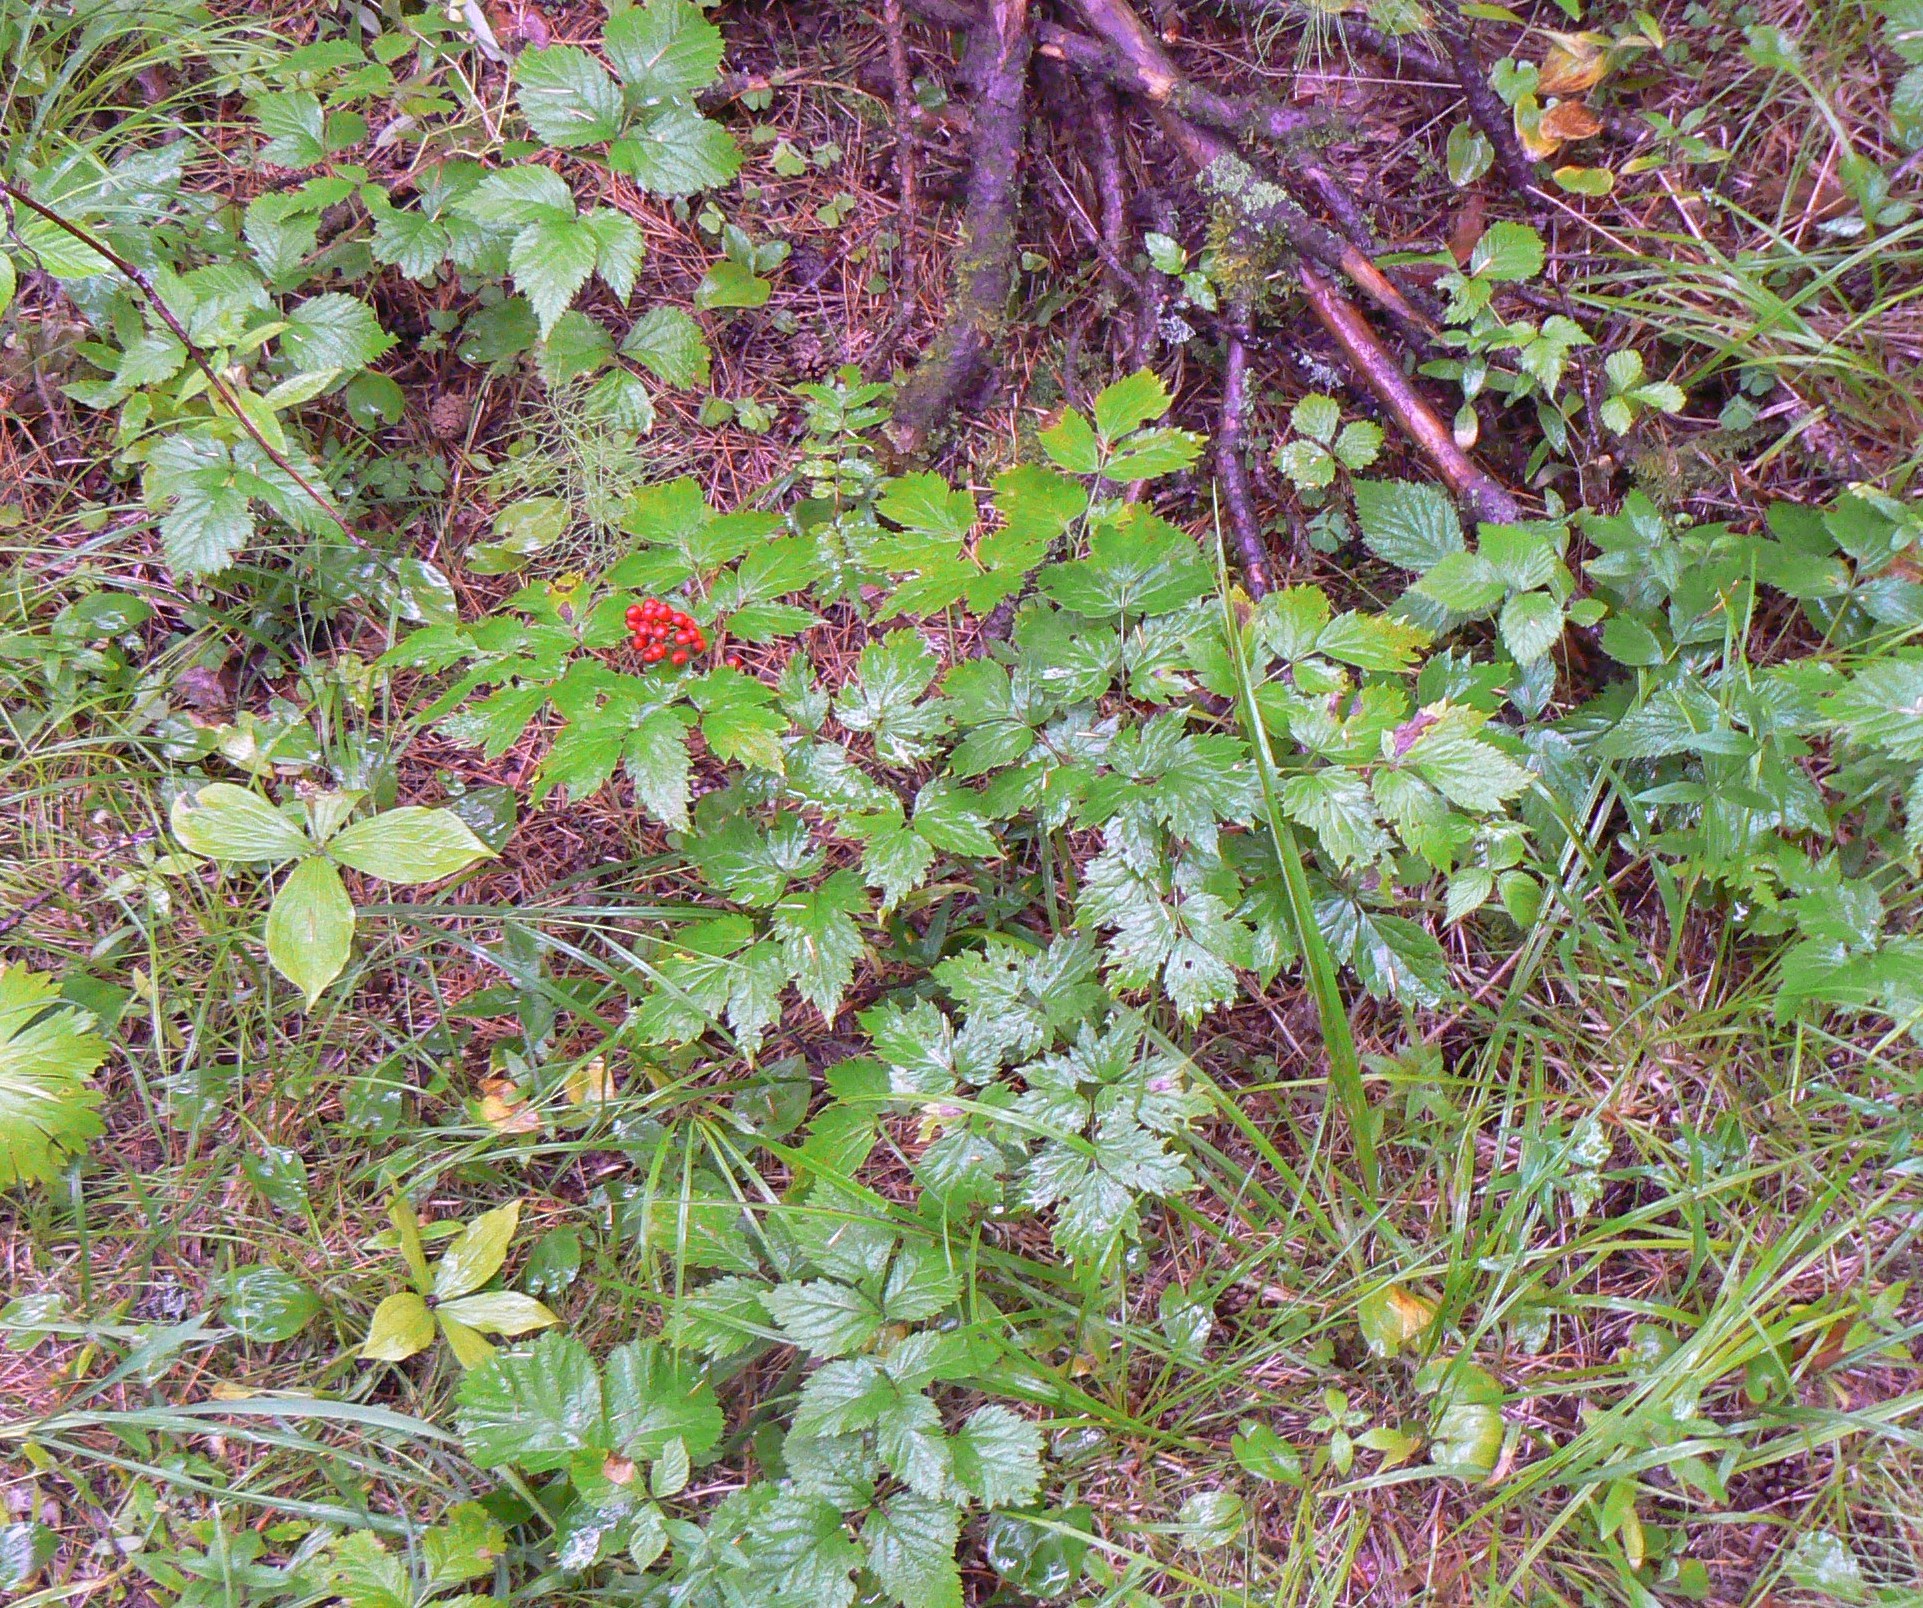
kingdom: Plantae
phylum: Tracheophyta
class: Magnoliopsida
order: Ranunculales
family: Ranunculaceae
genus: Actaea
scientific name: Actaea erythrocarpa
